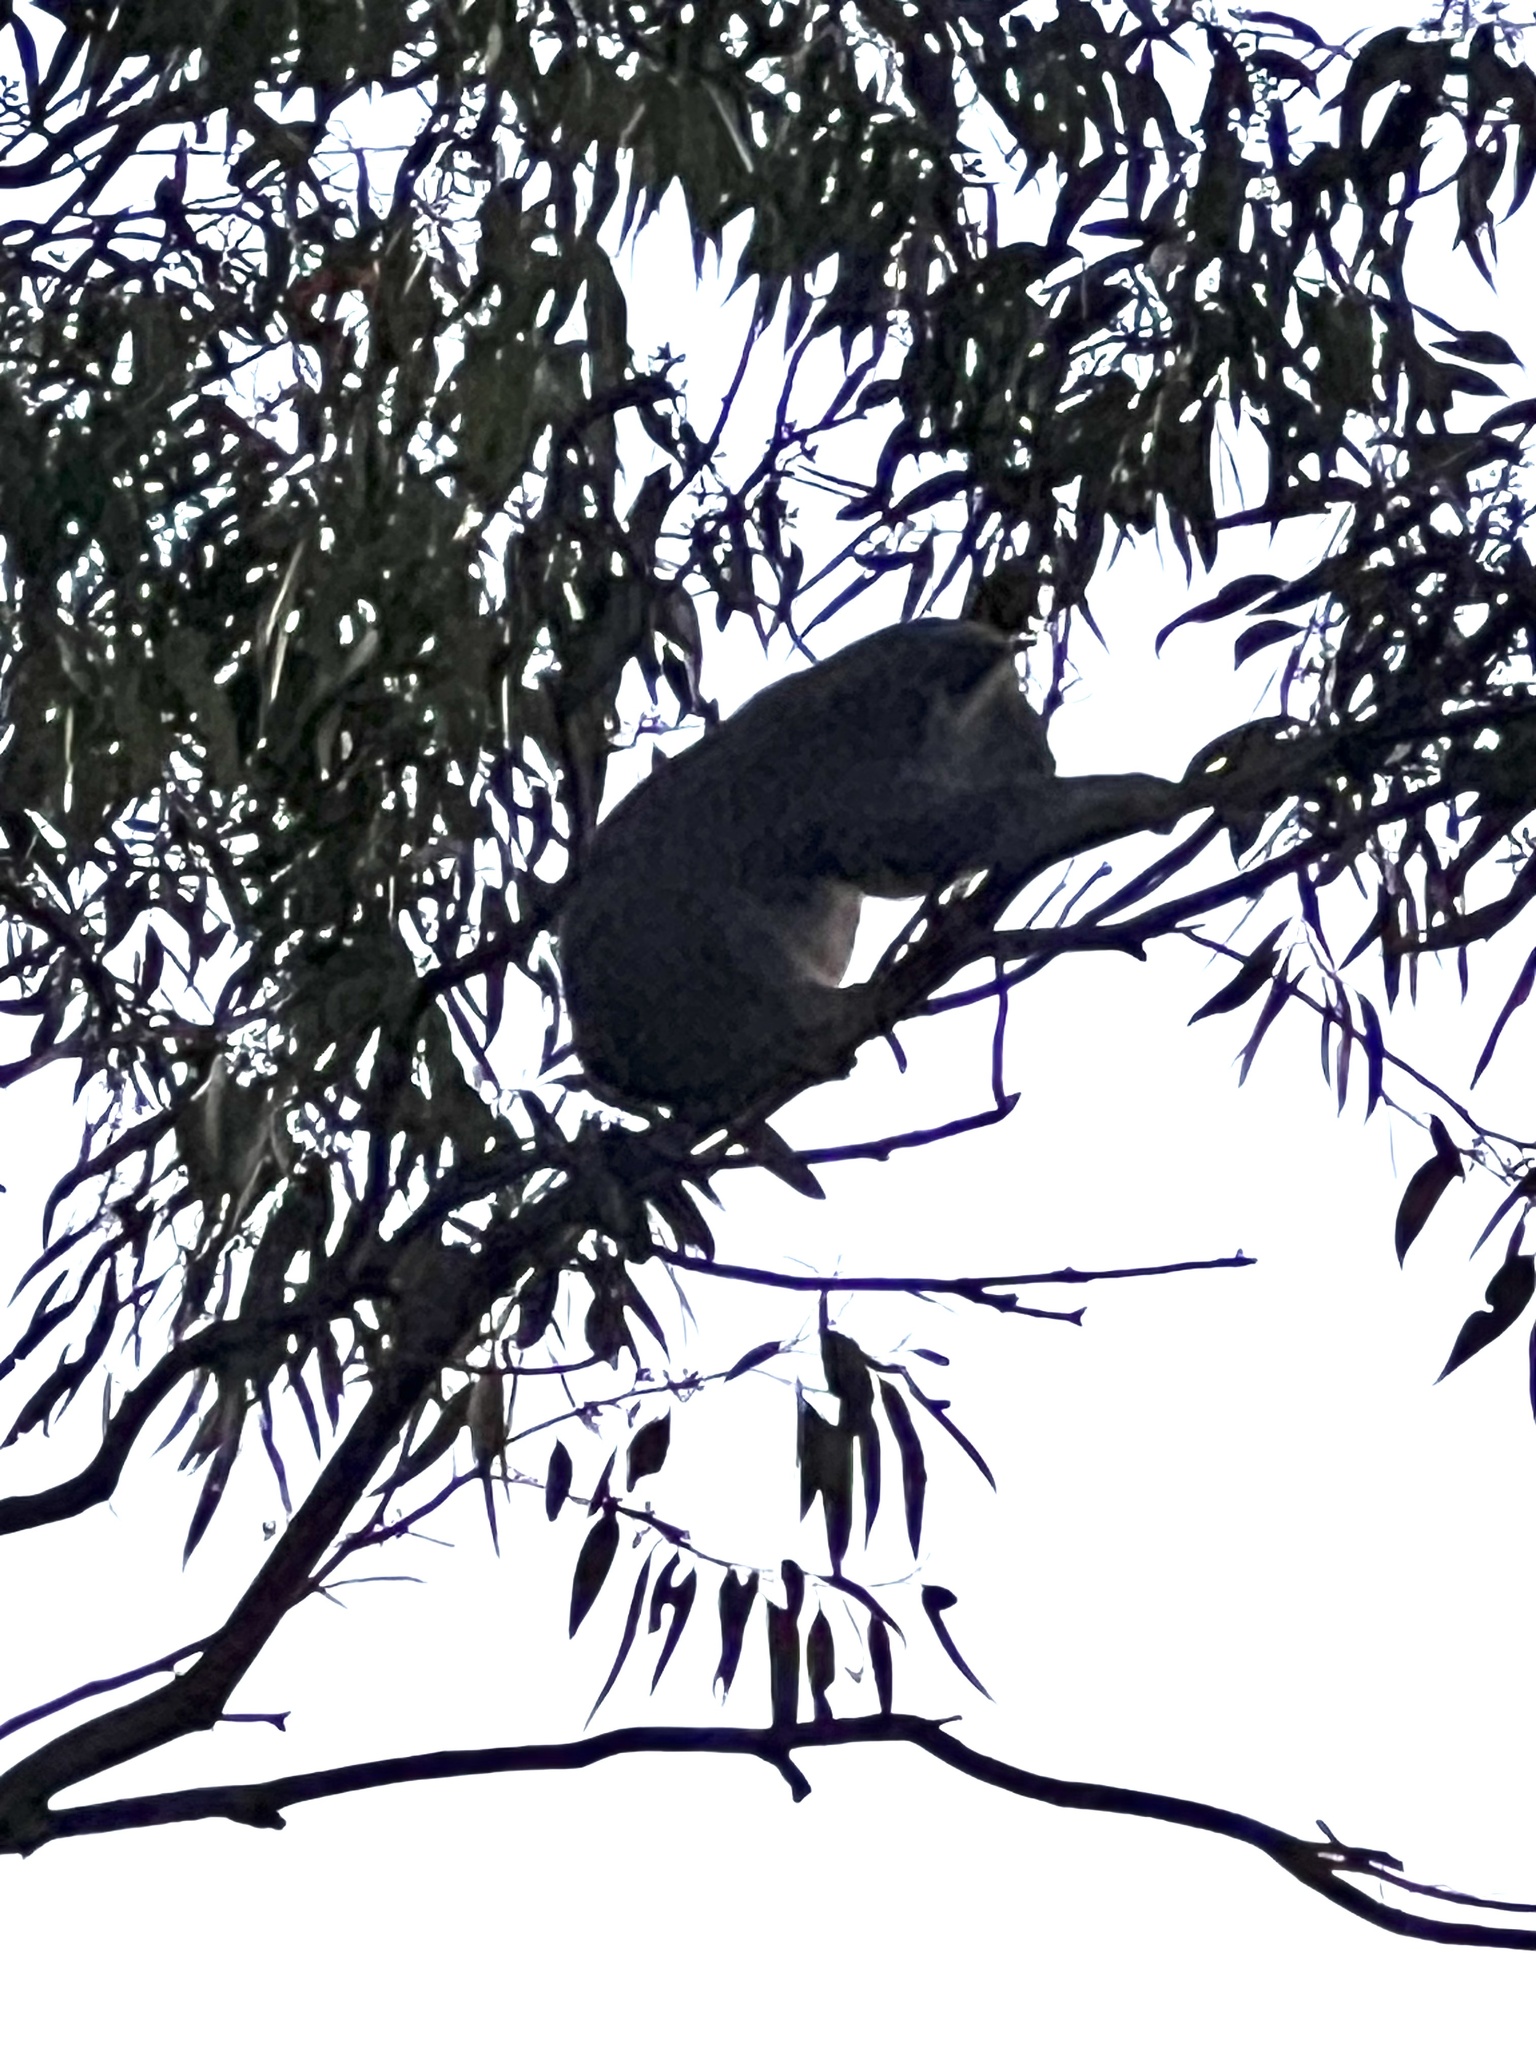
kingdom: Animalia
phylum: Chordata
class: Mammalia
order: Diprotodontia
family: Phascolarctidae
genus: Phascolarctos
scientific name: Phascolarctos cinereus
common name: Koala
